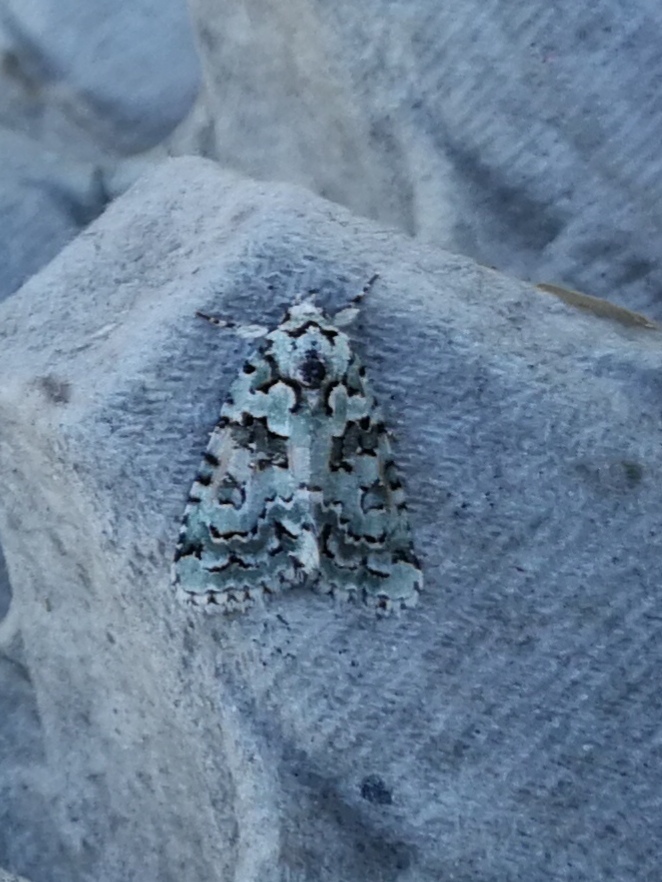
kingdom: Animalia
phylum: Arthropoda
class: Insecta
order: Lepidoptera
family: Noctuidae
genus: Nyctobrya
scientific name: Nyctobrya muralis
